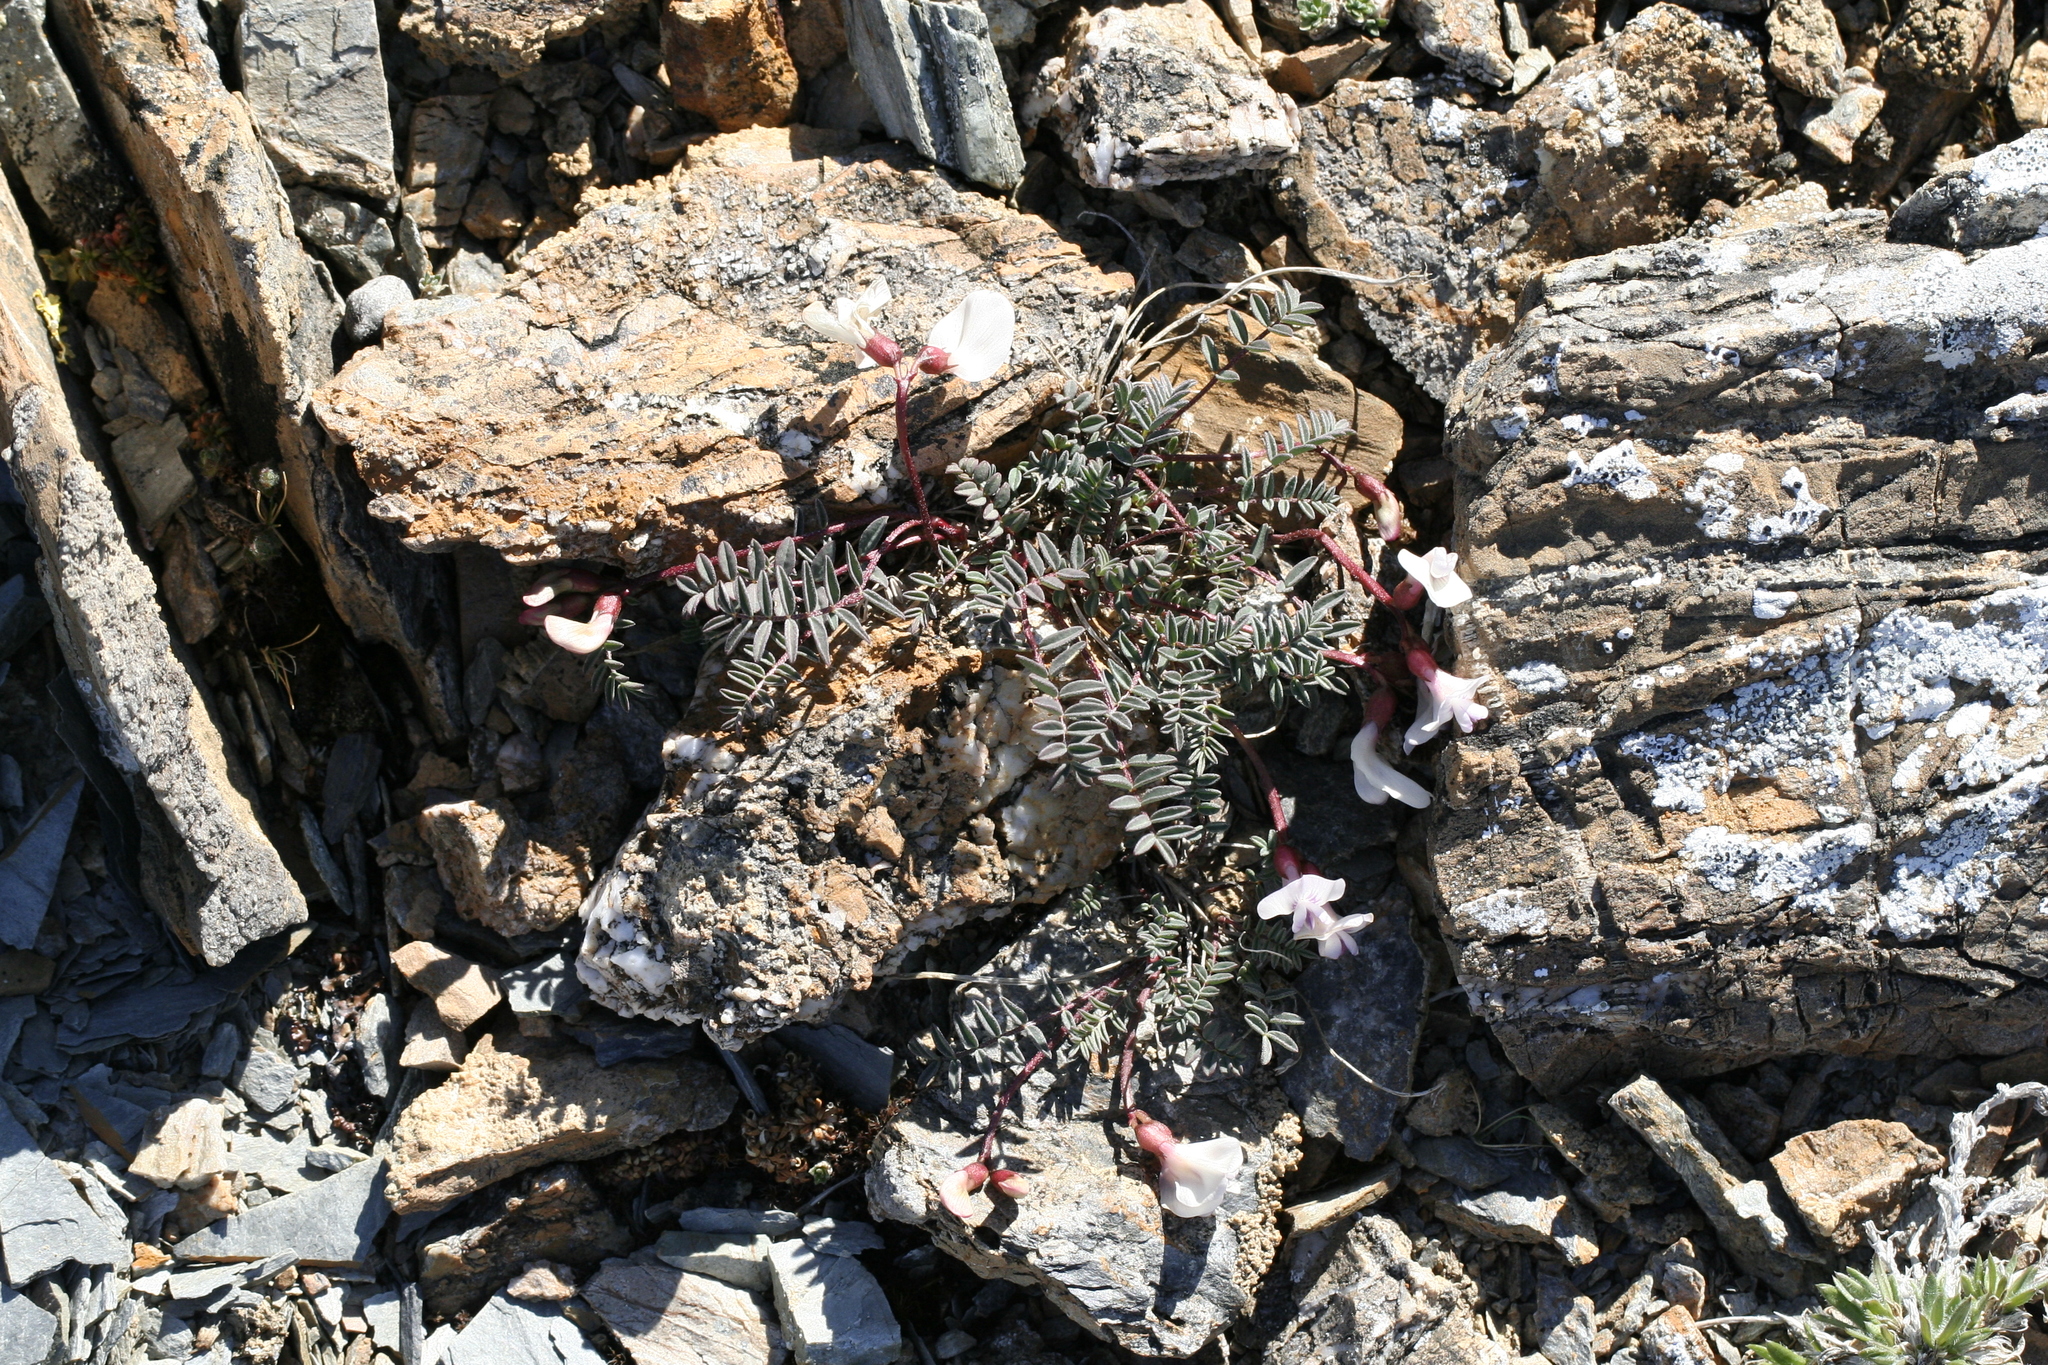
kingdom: Plantae
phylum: Tracheophyta
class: Magnoliopsida
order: Fabales
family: Fabaceae
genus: Astragalus
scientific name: Astragalus nutzotinensis
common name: Nutzotin milk-vetch
